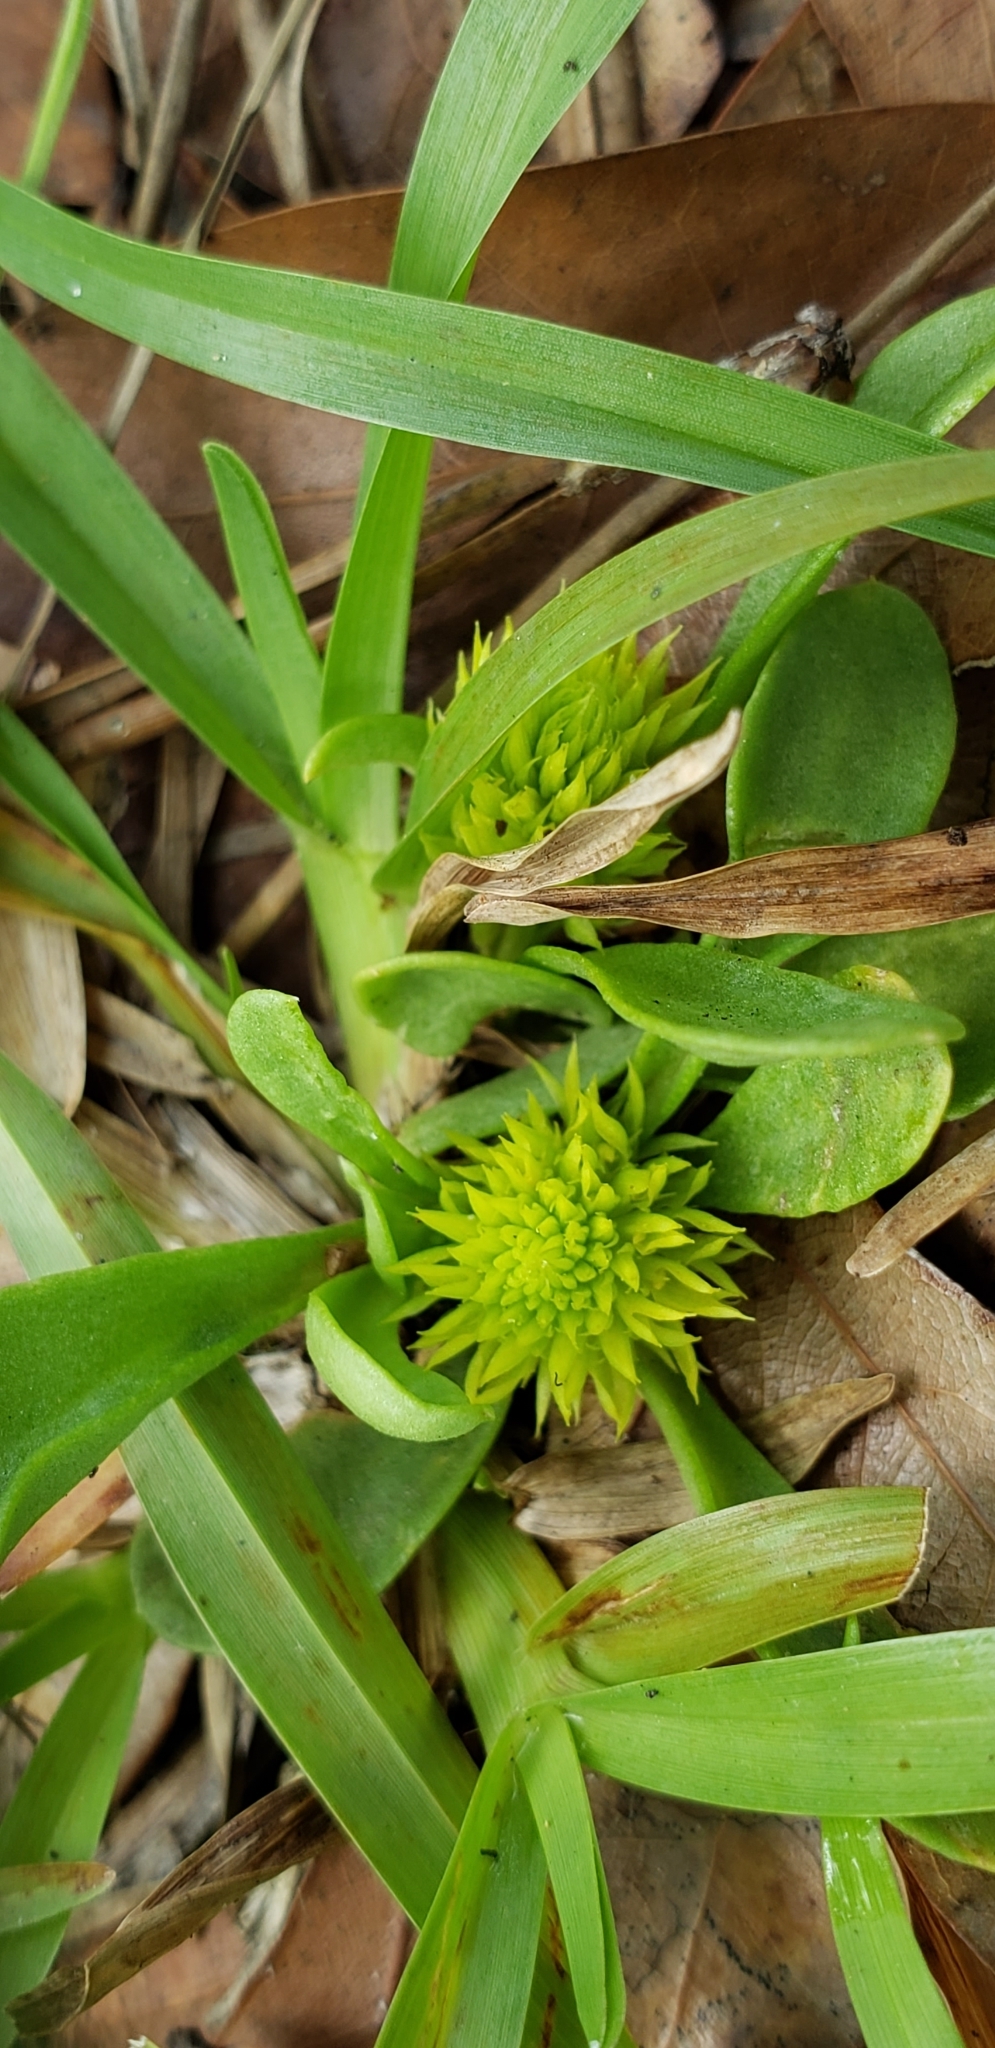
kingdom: Plantae
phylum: Tracheophyta
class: Magnoliopsida
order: Fabales
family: Polygalaceae
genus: Polygala
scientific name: Polygala nana
